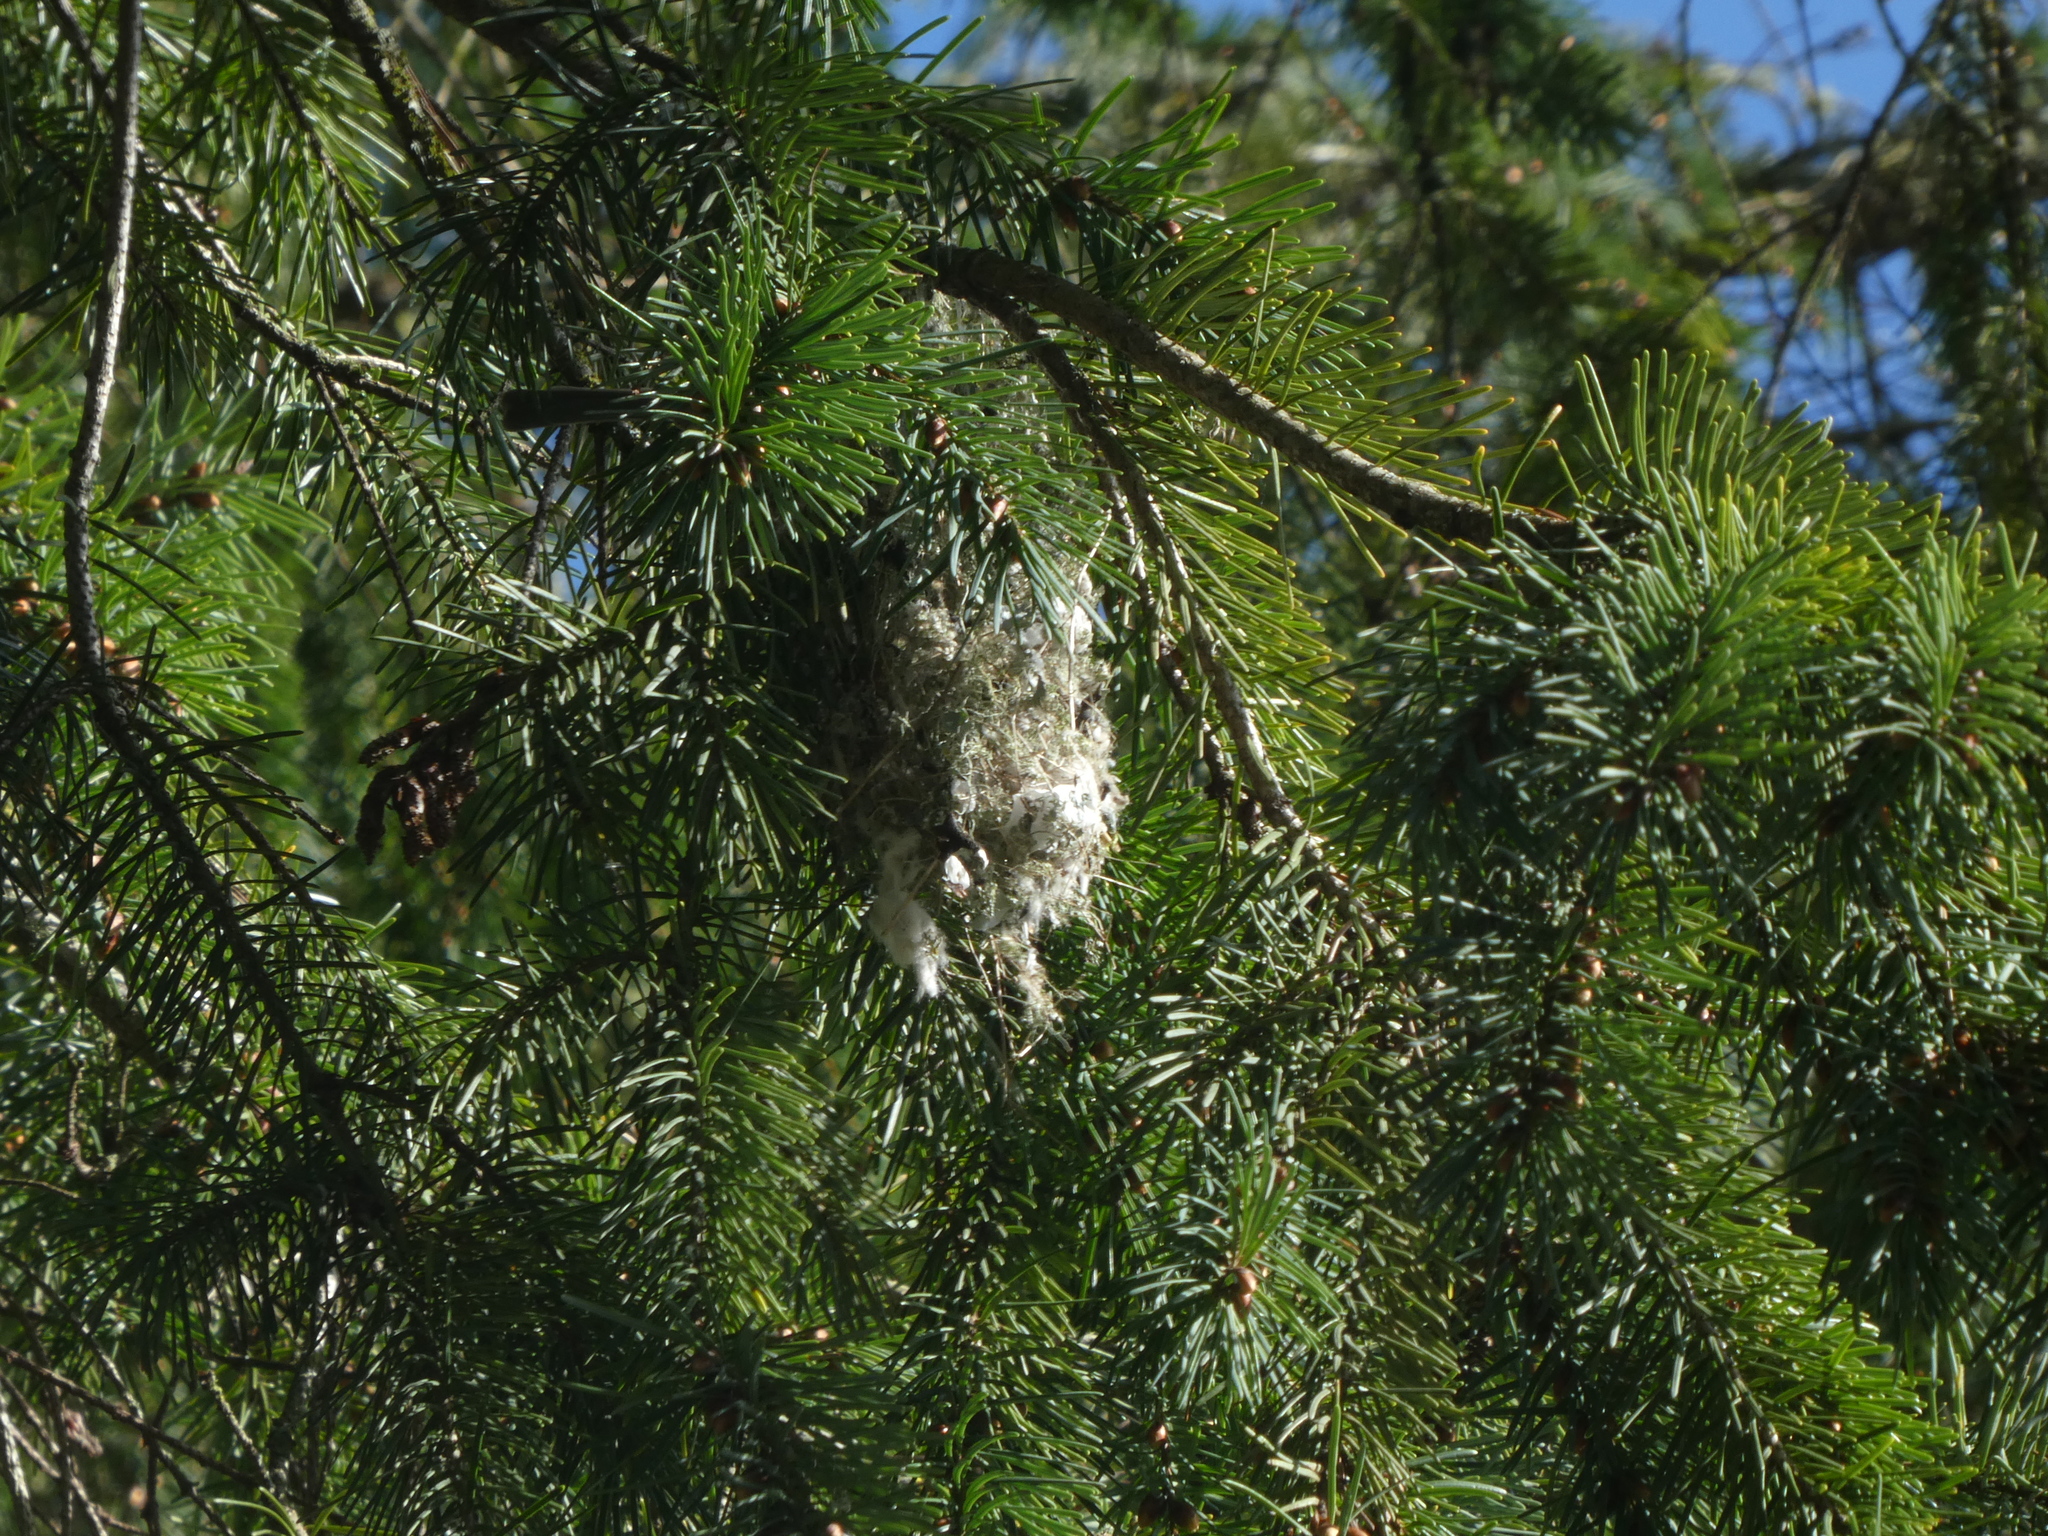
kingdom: Animalia
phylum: Chordata
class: Aves
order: Passeriformes
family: Aegithalidae
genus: Psaltriparus
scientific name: Psaltriparus minimus
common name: American bushtit
